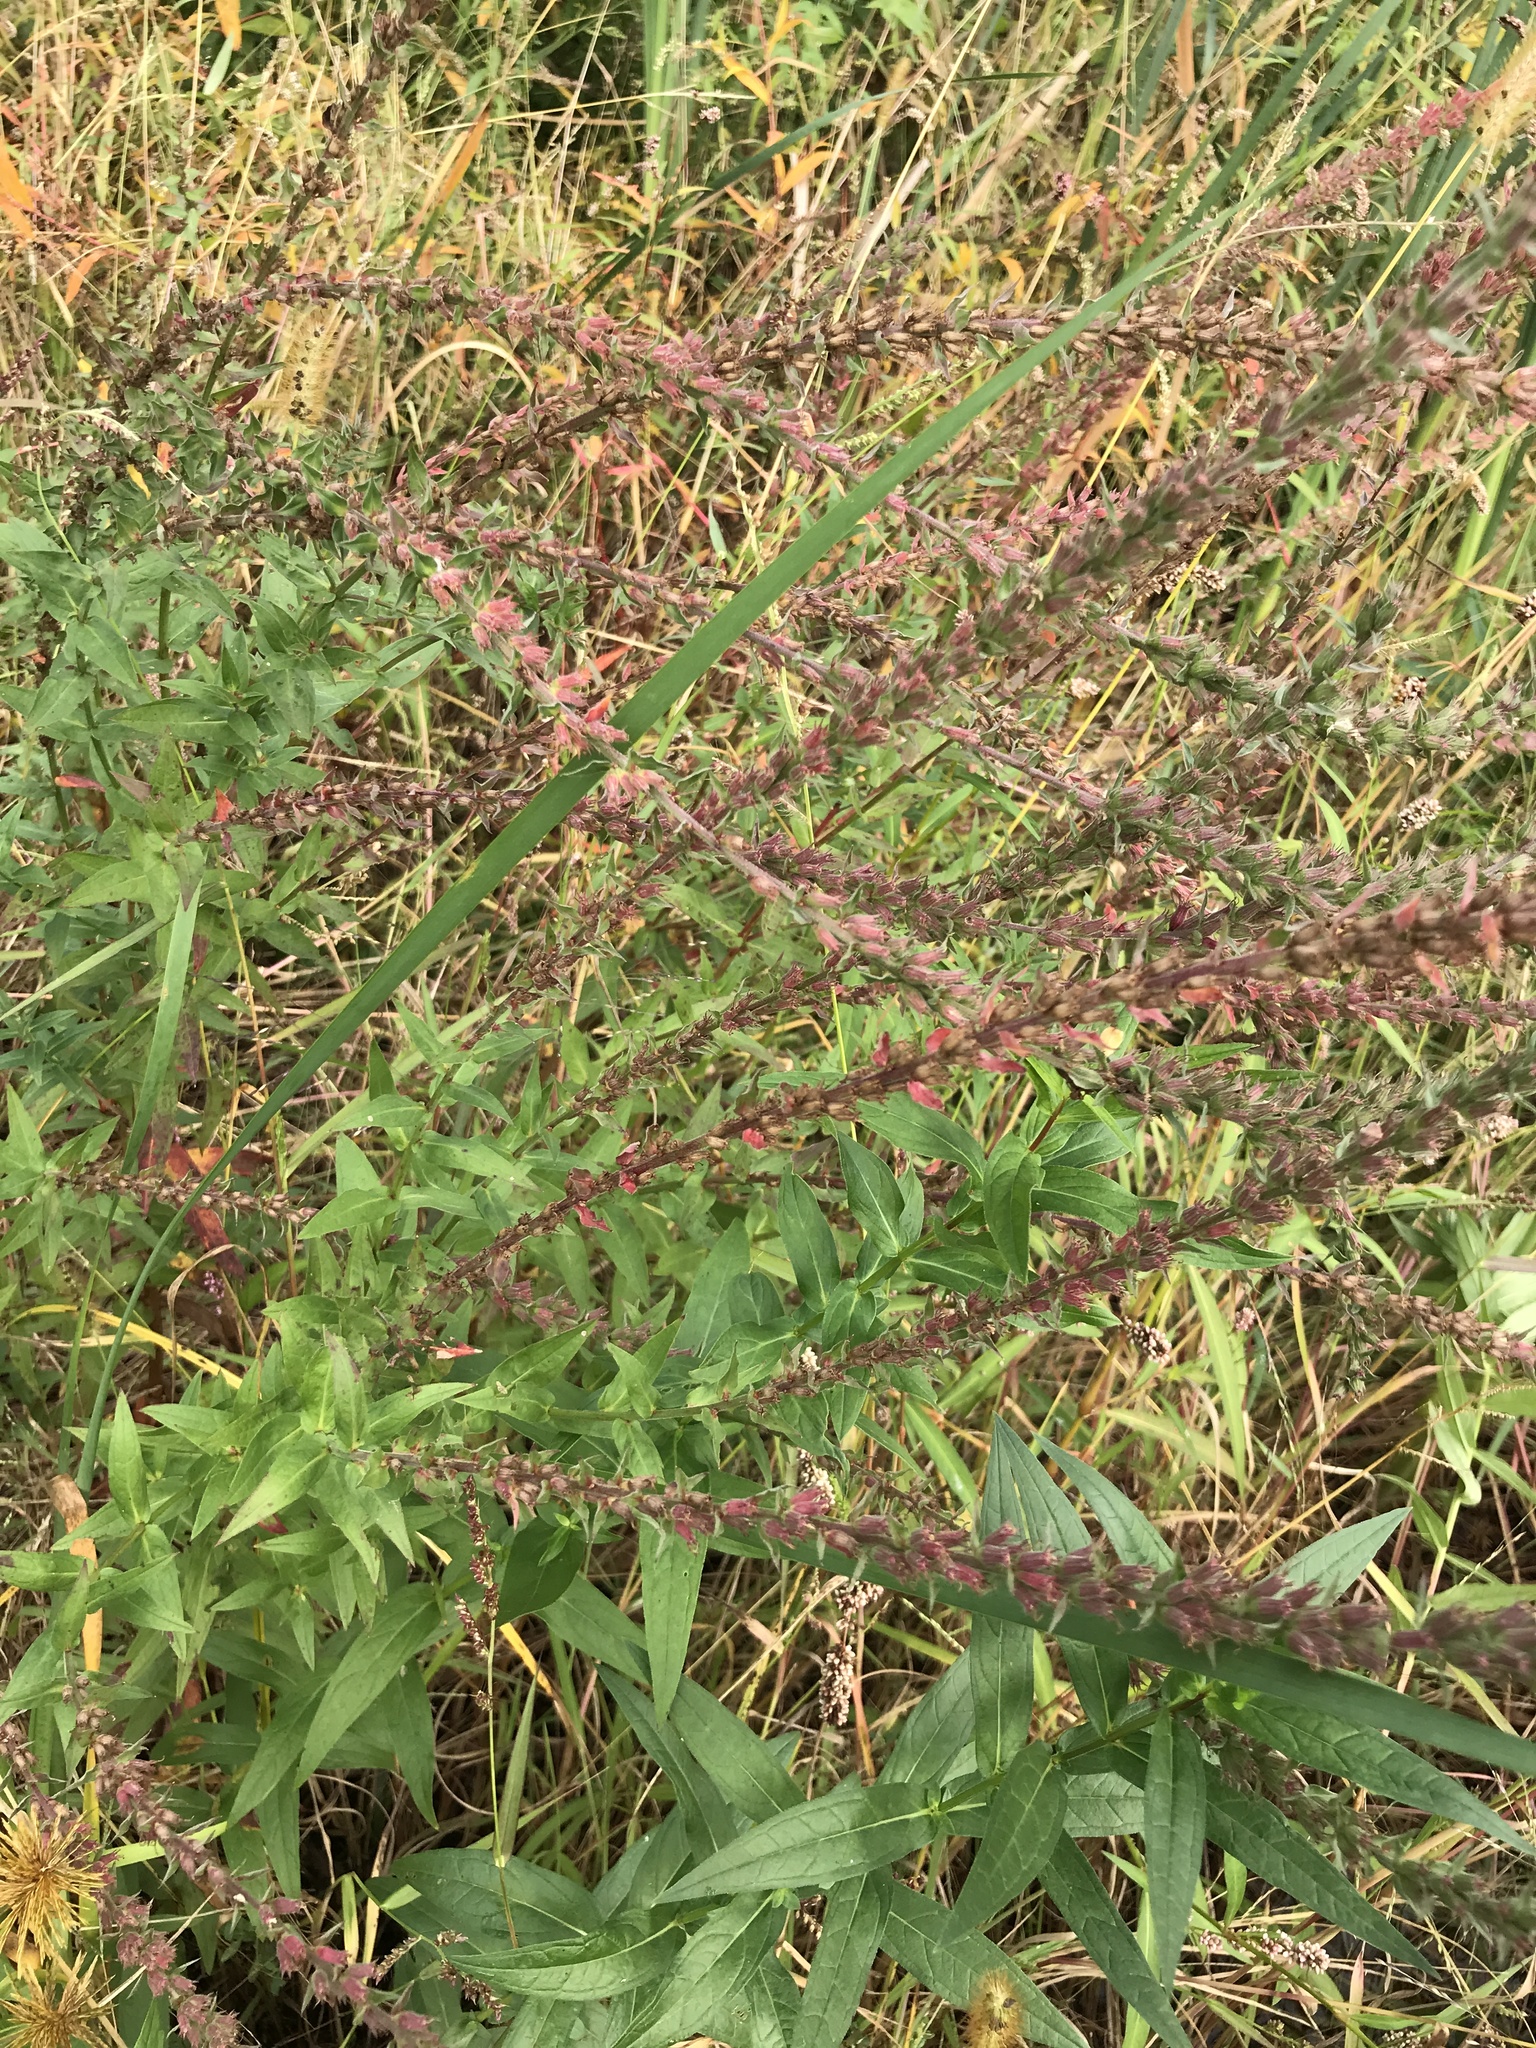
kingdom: Plantae
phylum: Tracheophyta
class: Magnoliopsida
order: Myrtales
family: Lythraceae
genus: Lythrum
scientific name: Lythrum salicaria
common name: Purple loosestrife
